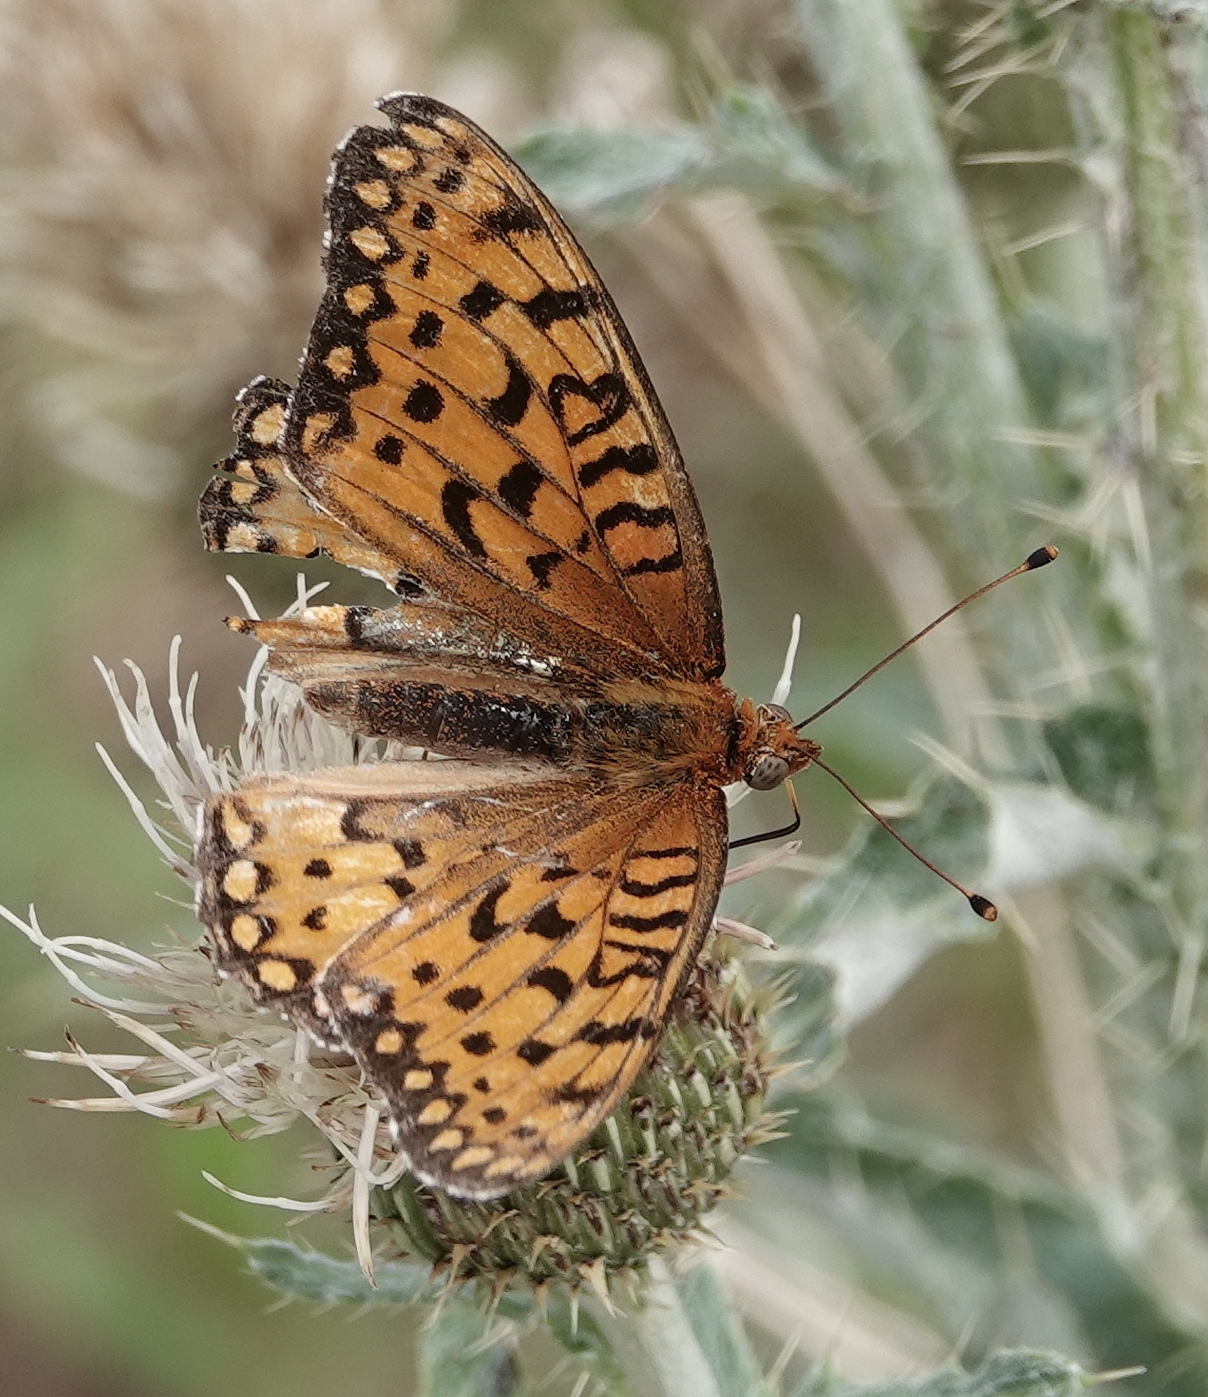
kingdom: Animalia
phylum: Arthropoda
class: Insecta
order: Lepidoptera
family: Nymphalidae
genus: Speyeria
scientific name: Speyeria edwardsii
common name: Edwards' fritillary
